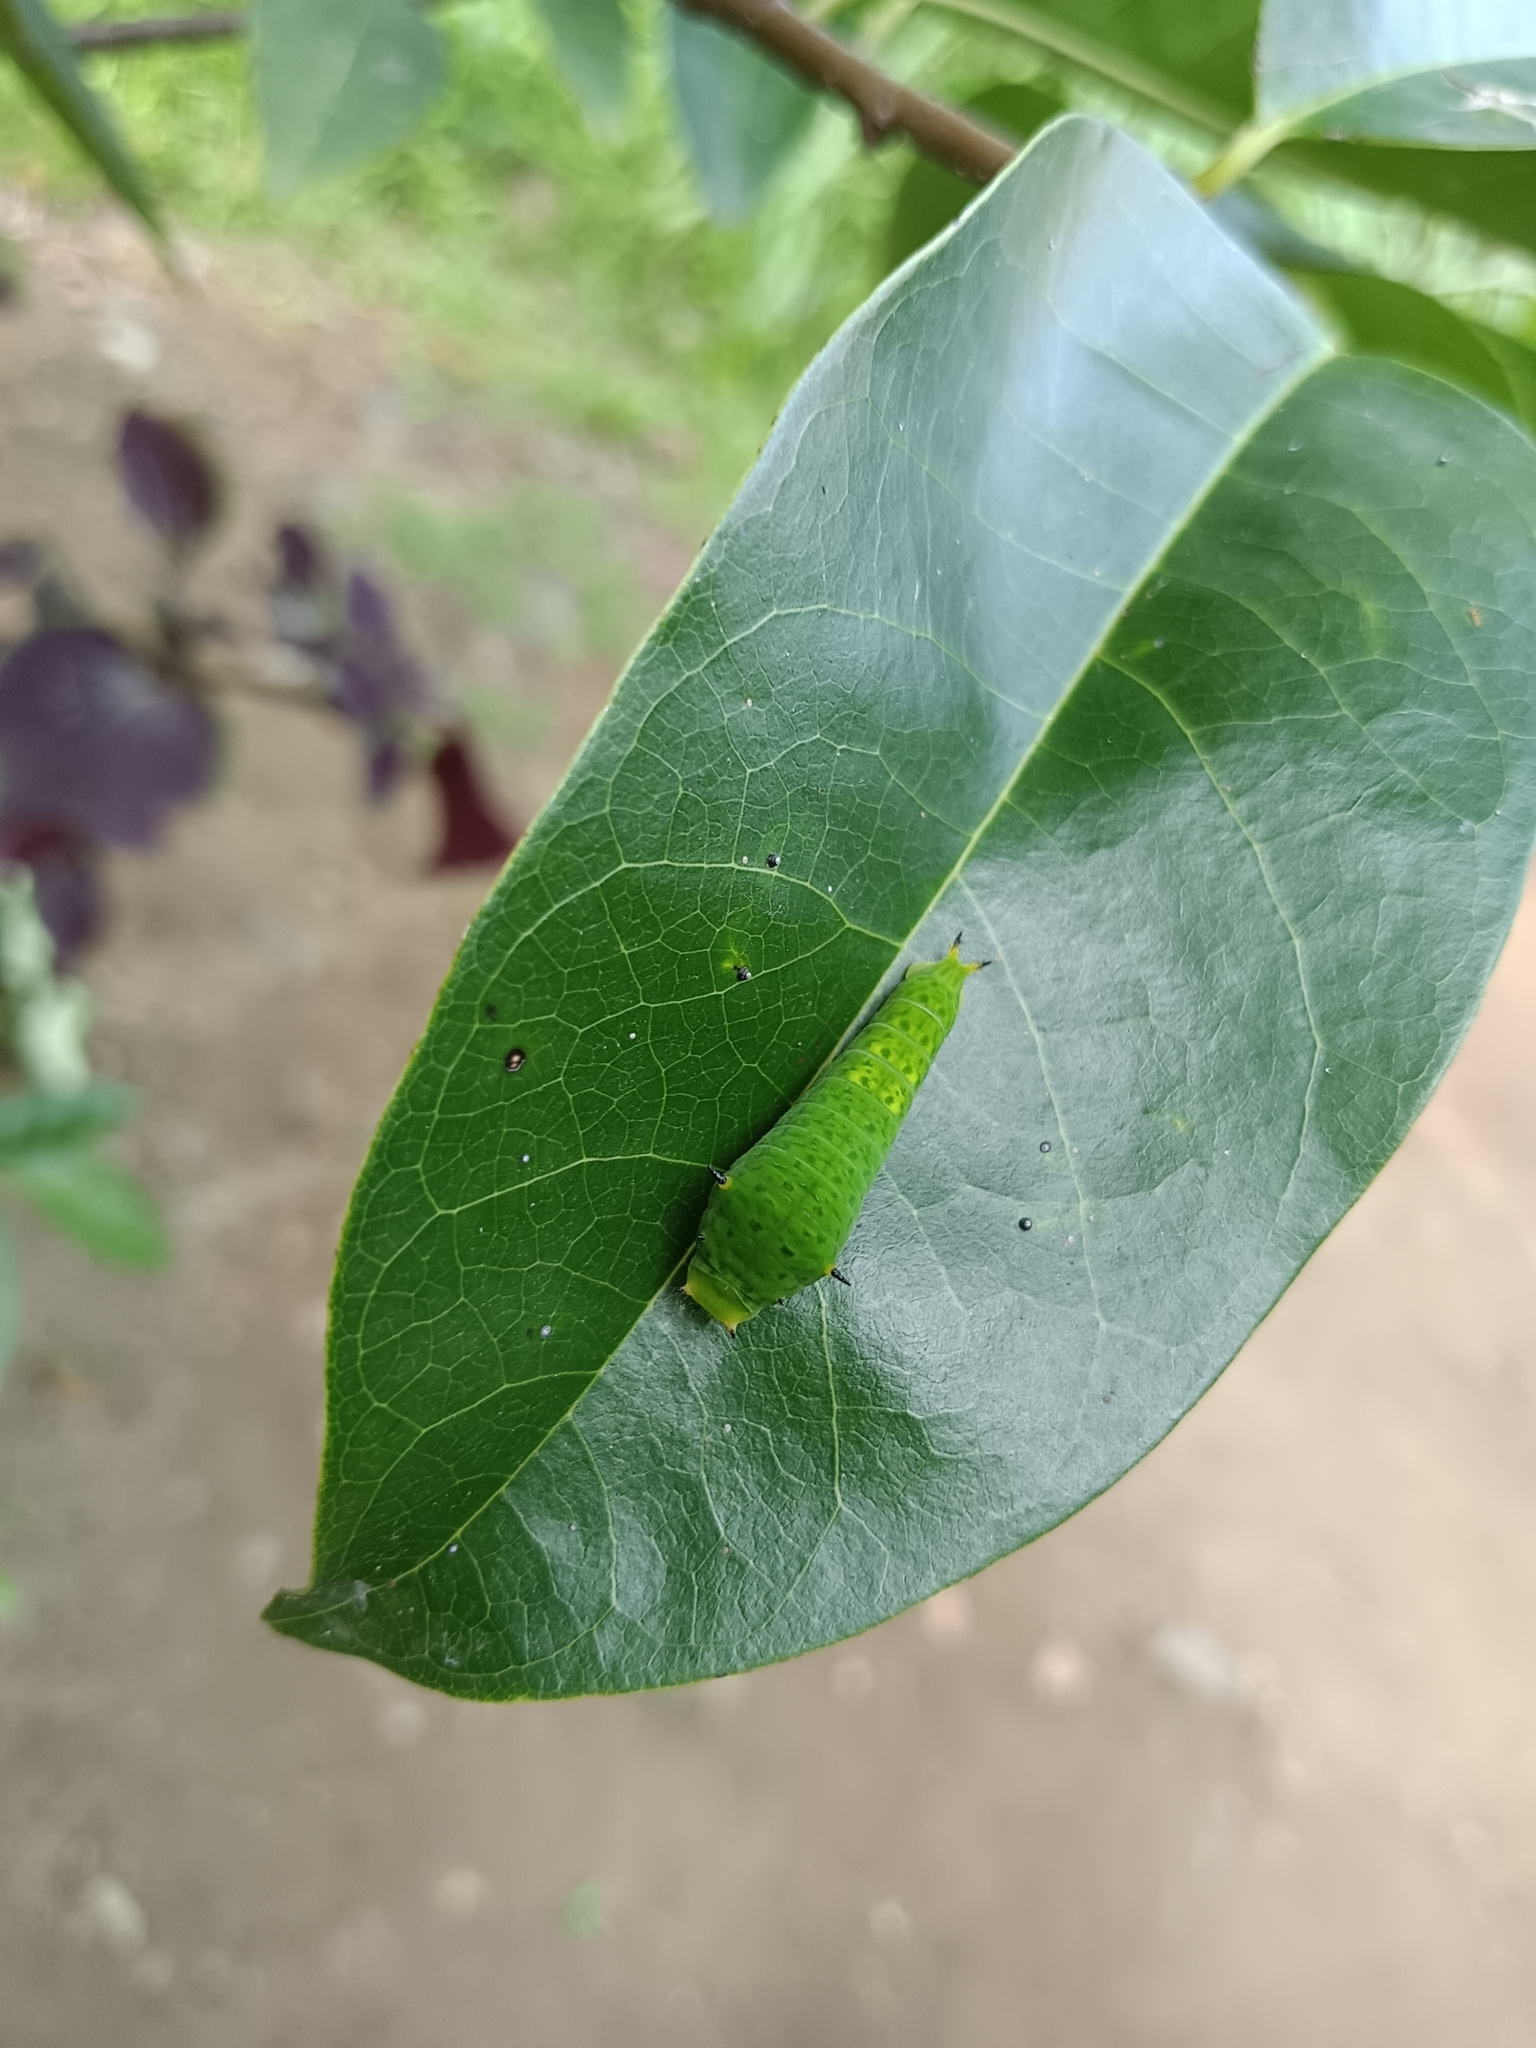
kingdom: Animalia
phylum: Arthropoda
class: Insecta
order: Lepidoptera
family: Papilionidae
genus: Graphium
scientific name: Graphium agamemnon
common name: Tailed jay
